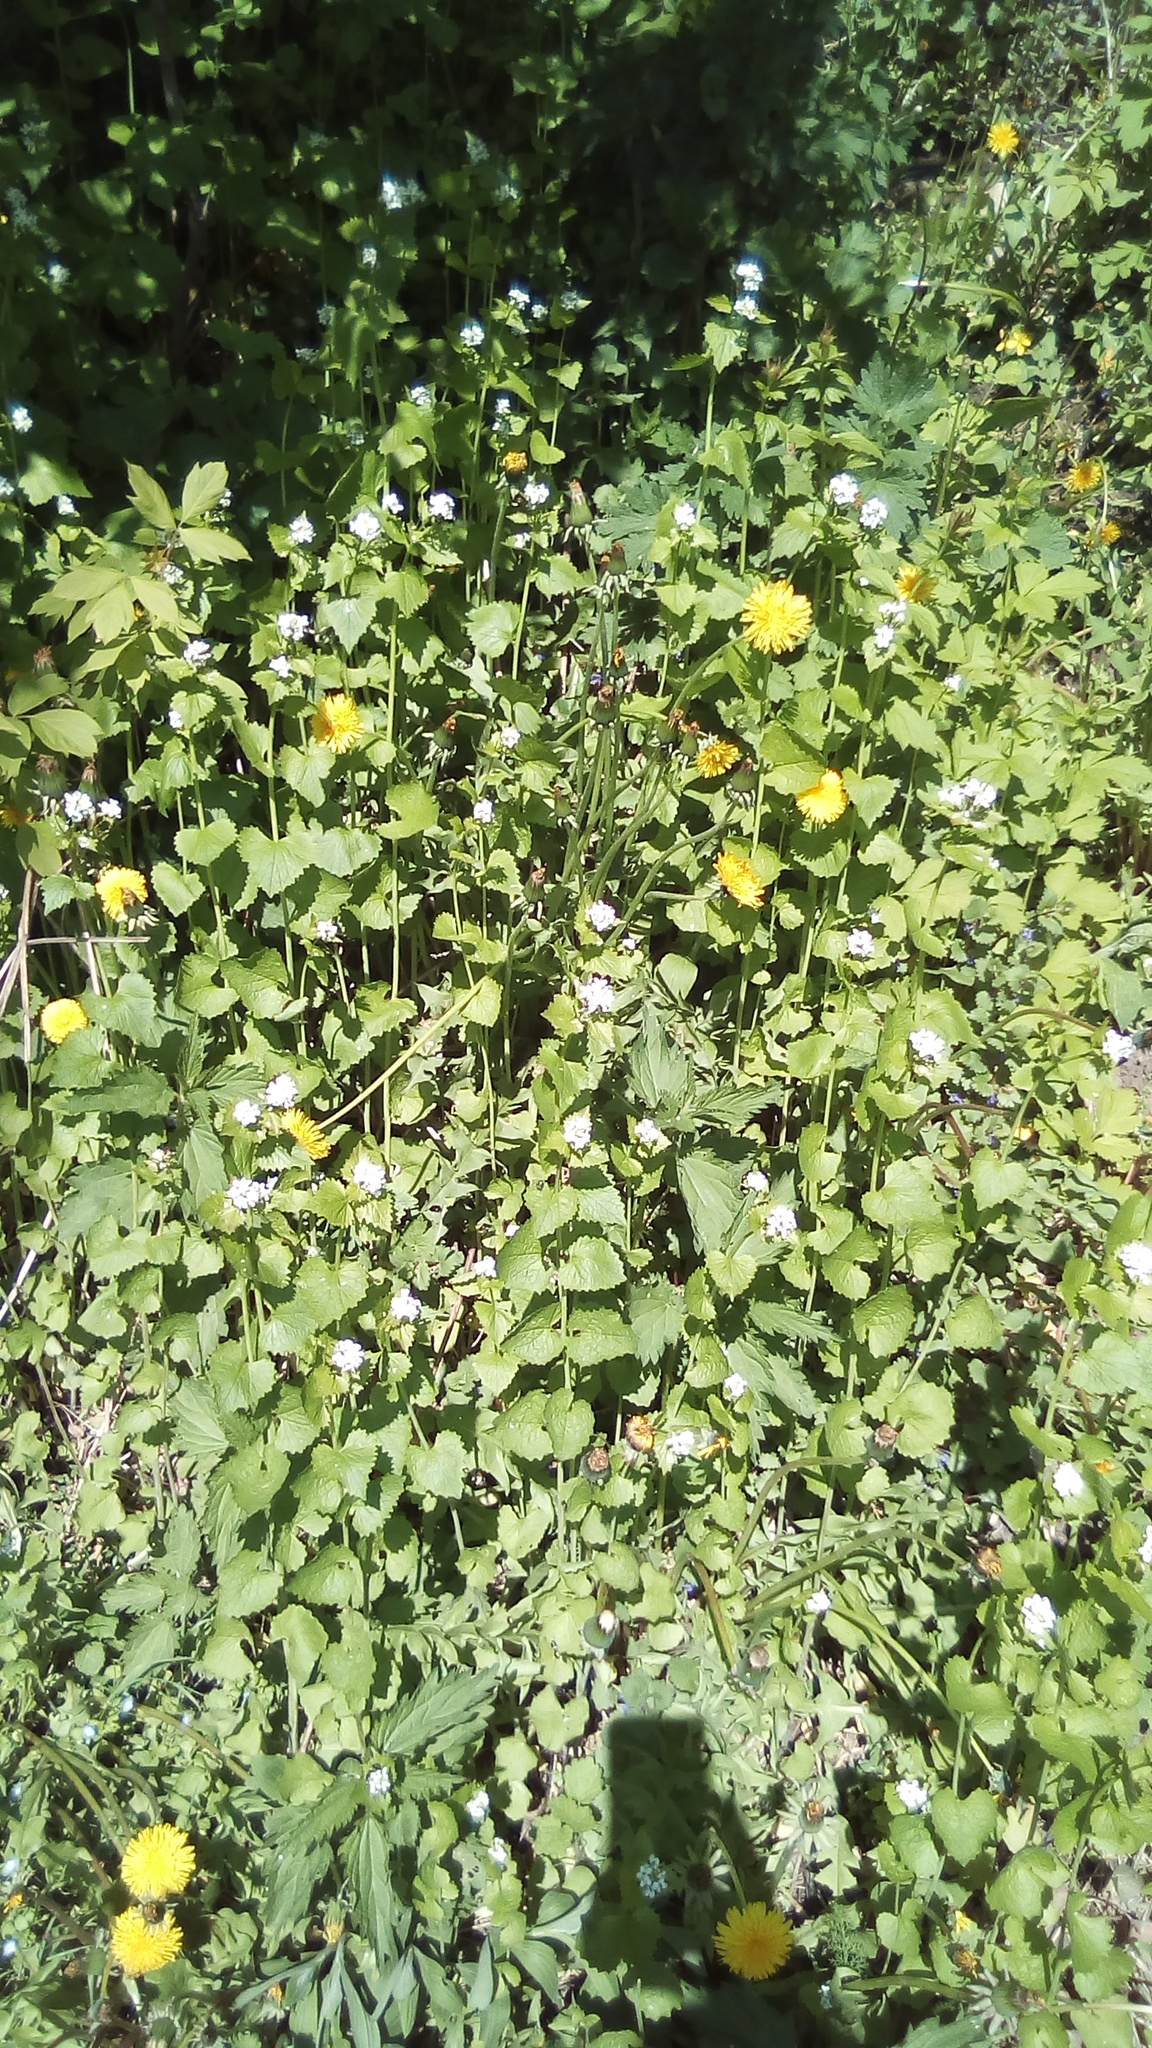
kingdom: Plantae
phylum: Tracheophyta
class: Magnoliopsida
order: Brassicales
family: Brassicaceae
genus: Alliaria
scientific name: Alliaria petiolata
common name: Garlic mustard
